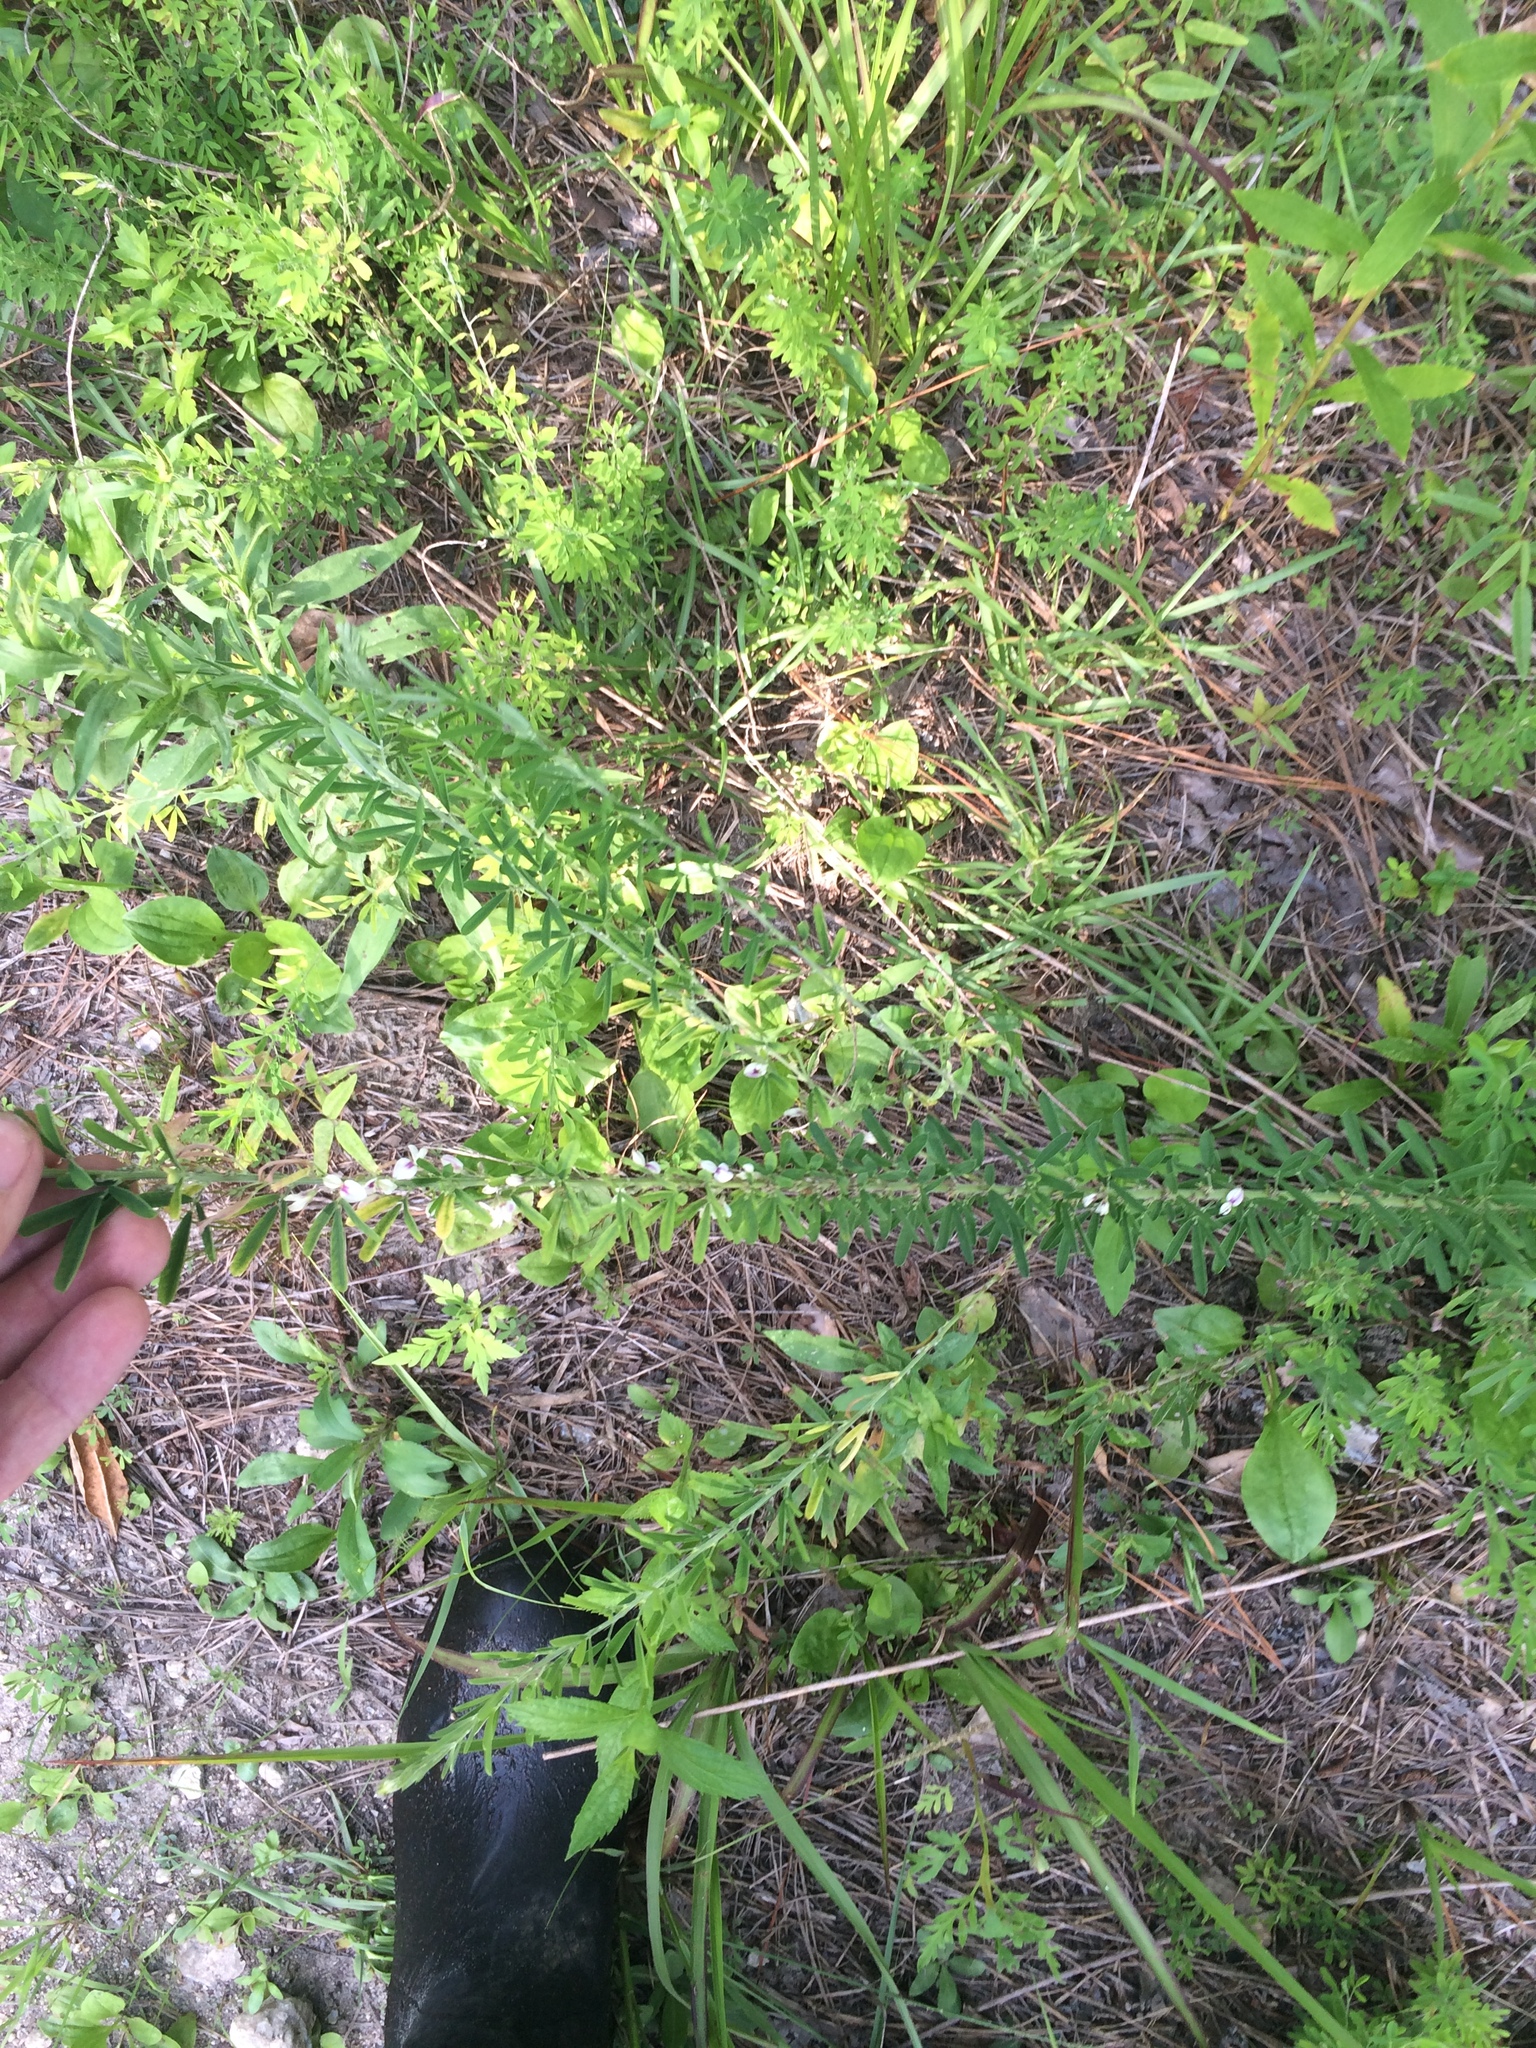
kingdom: Plantae
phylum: Tracheophyta
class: Magnoliopsida
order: Fabales
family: Fabaceae
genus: Lespedeza
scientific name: Lespedeza cuneata
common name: Chinese bush-clover
